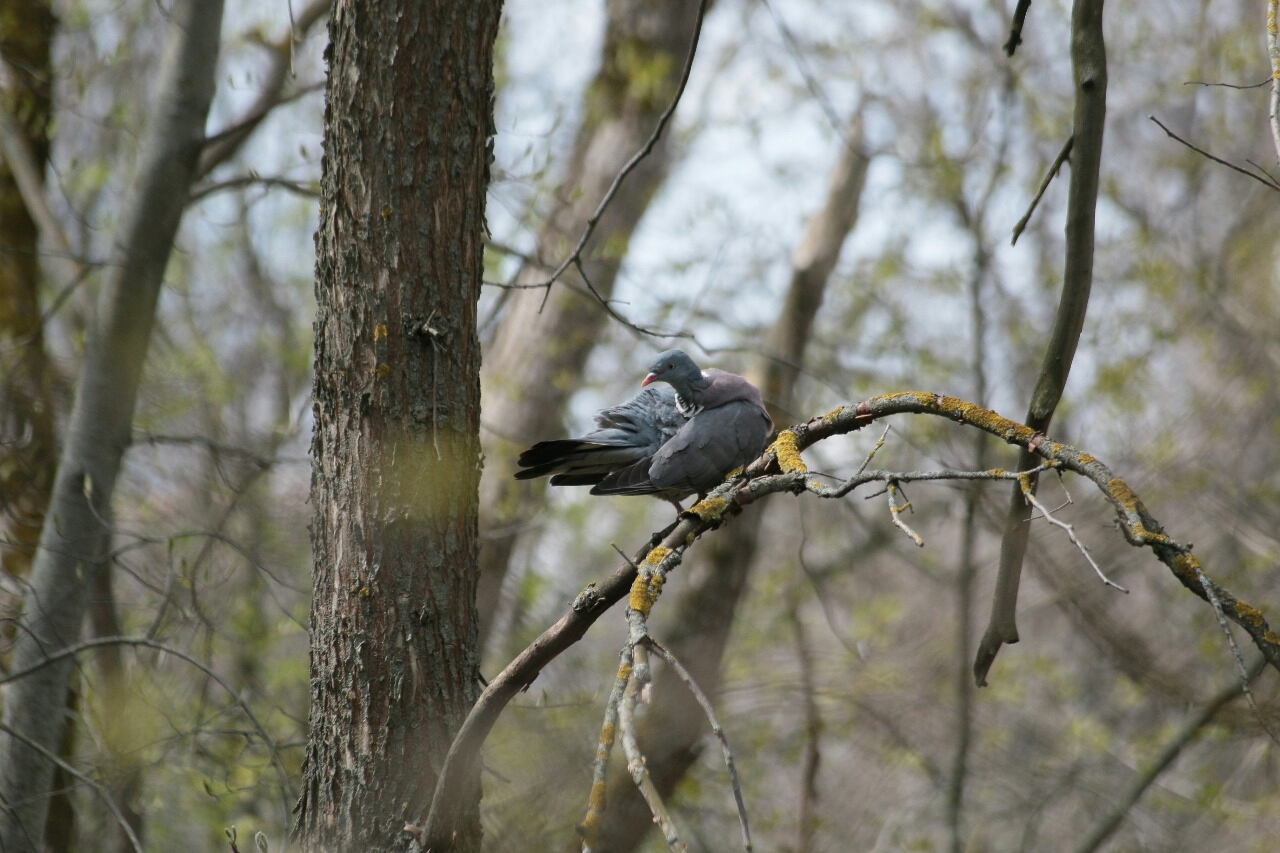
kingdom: Animalia
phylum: Chordata
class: Aves
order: Columbiformes
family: Columbidae
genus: Columba
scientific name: Columba palumbus
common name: Common wood pigeon
